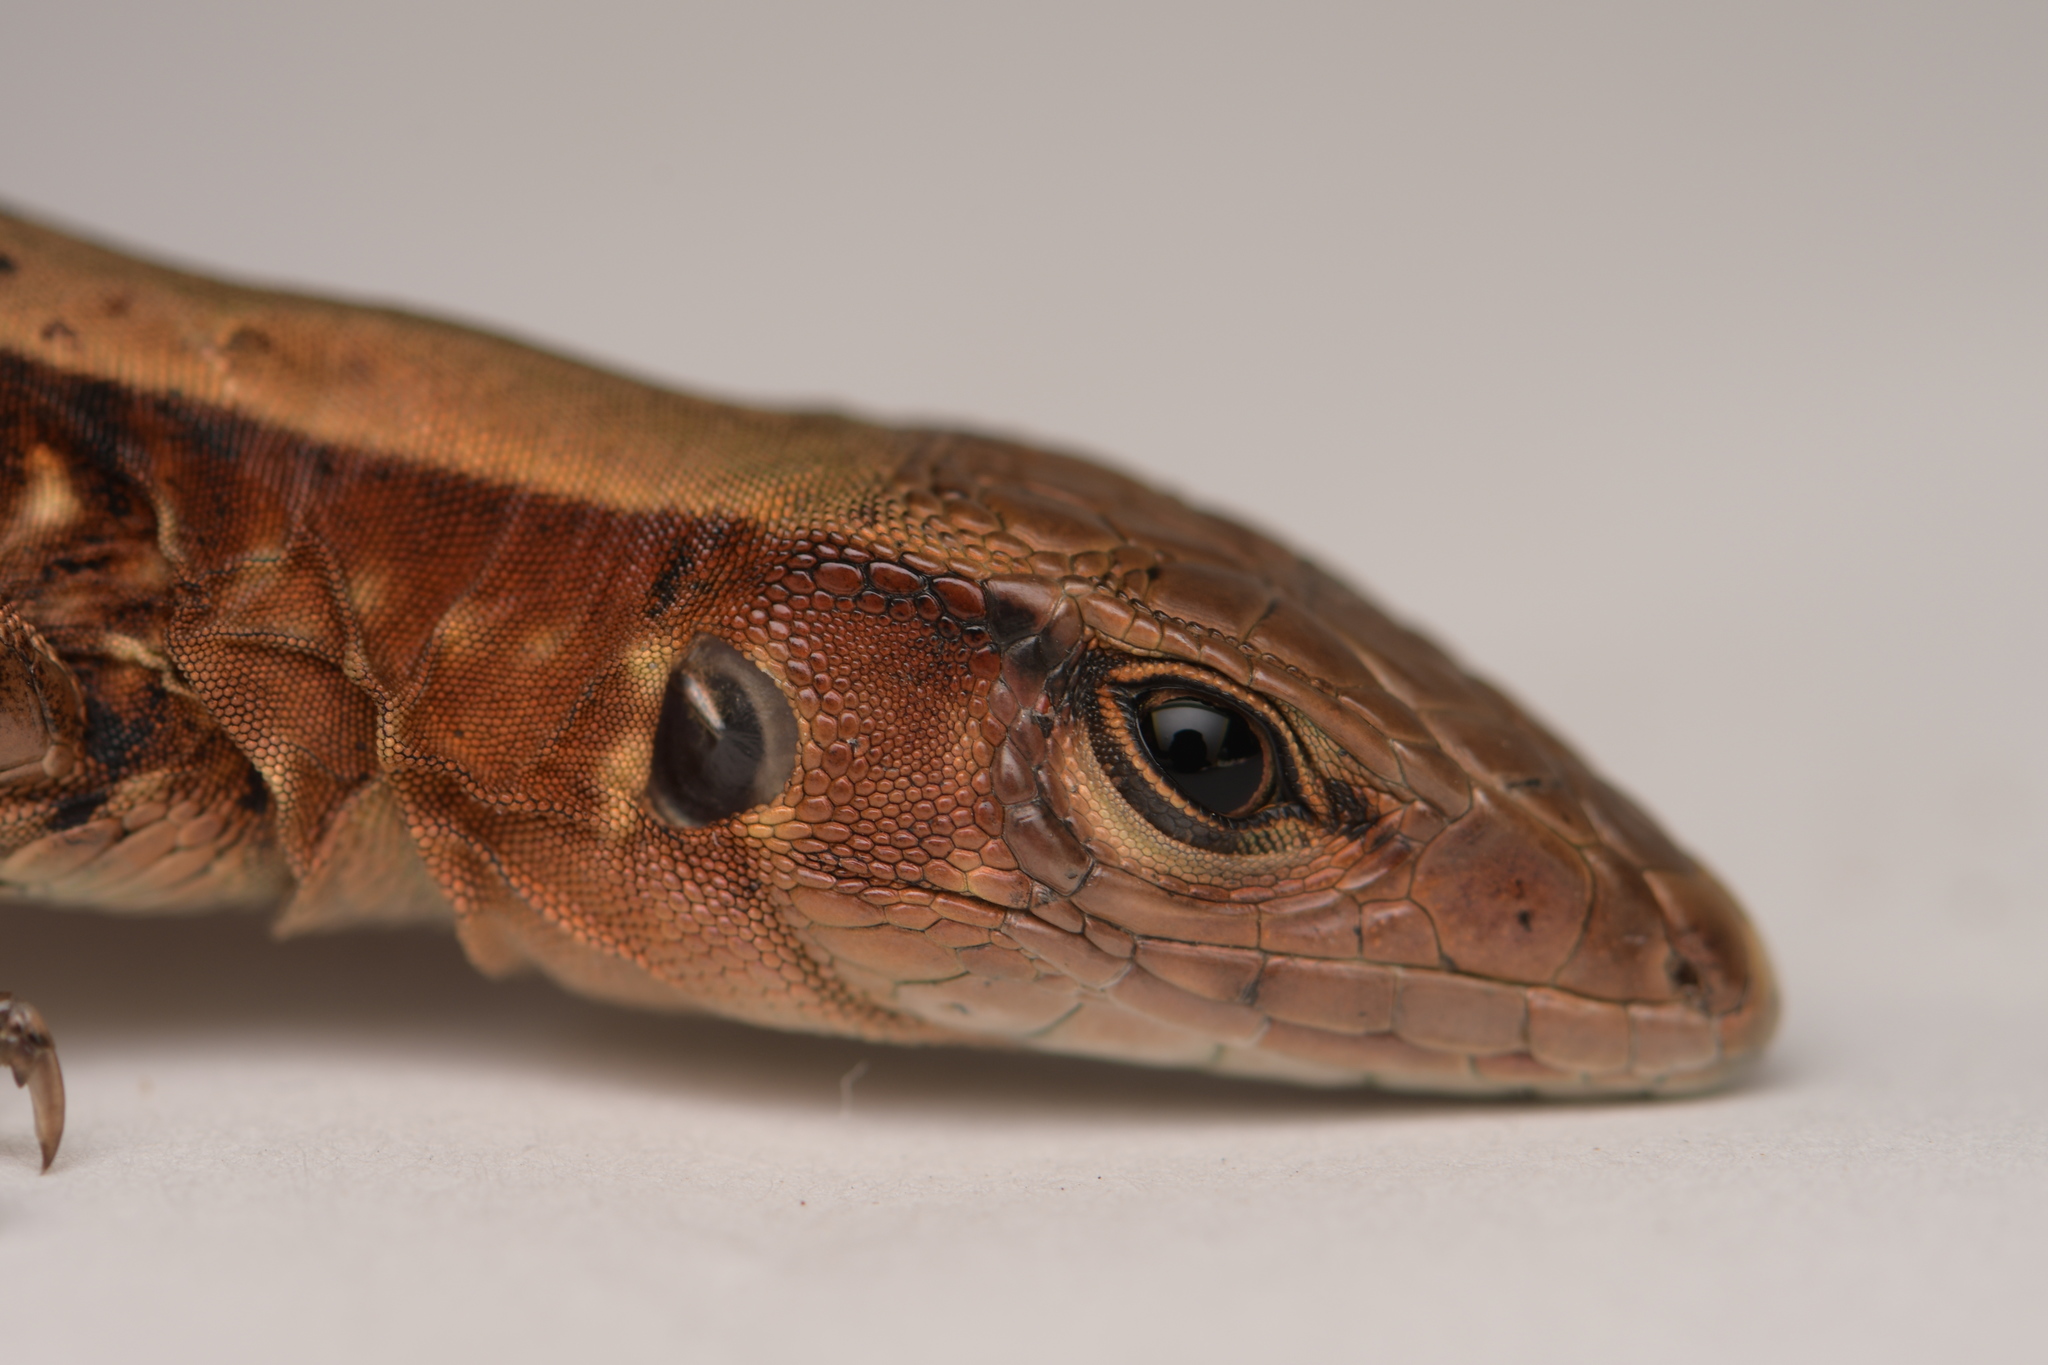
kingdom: Animalia
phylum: Chordata
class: Squamata
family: Teiidae
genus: Holcosus
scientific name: Holcosus undulatus
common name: Rainbow ameiva
